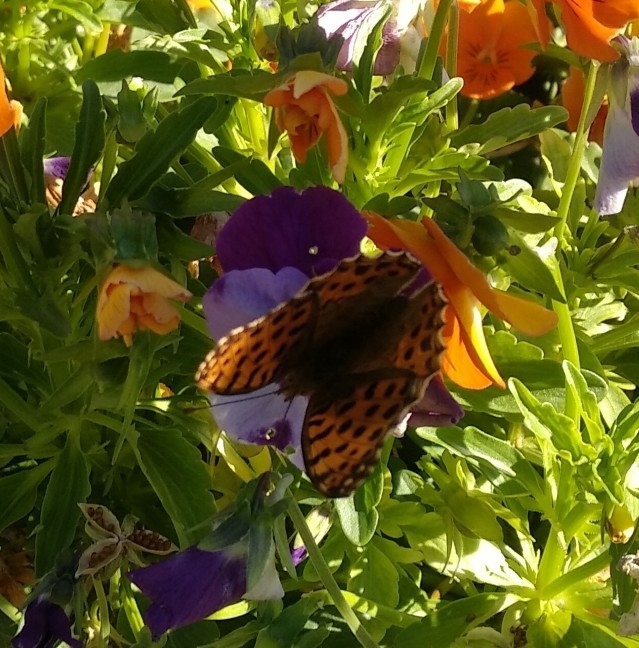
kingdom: Animalia
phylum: Arthropoda
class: Insecta
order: Lepidoptera
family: Nymphalidae
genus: Issoria
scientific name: Issoria lathonia
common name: Queen of spain fritillary
